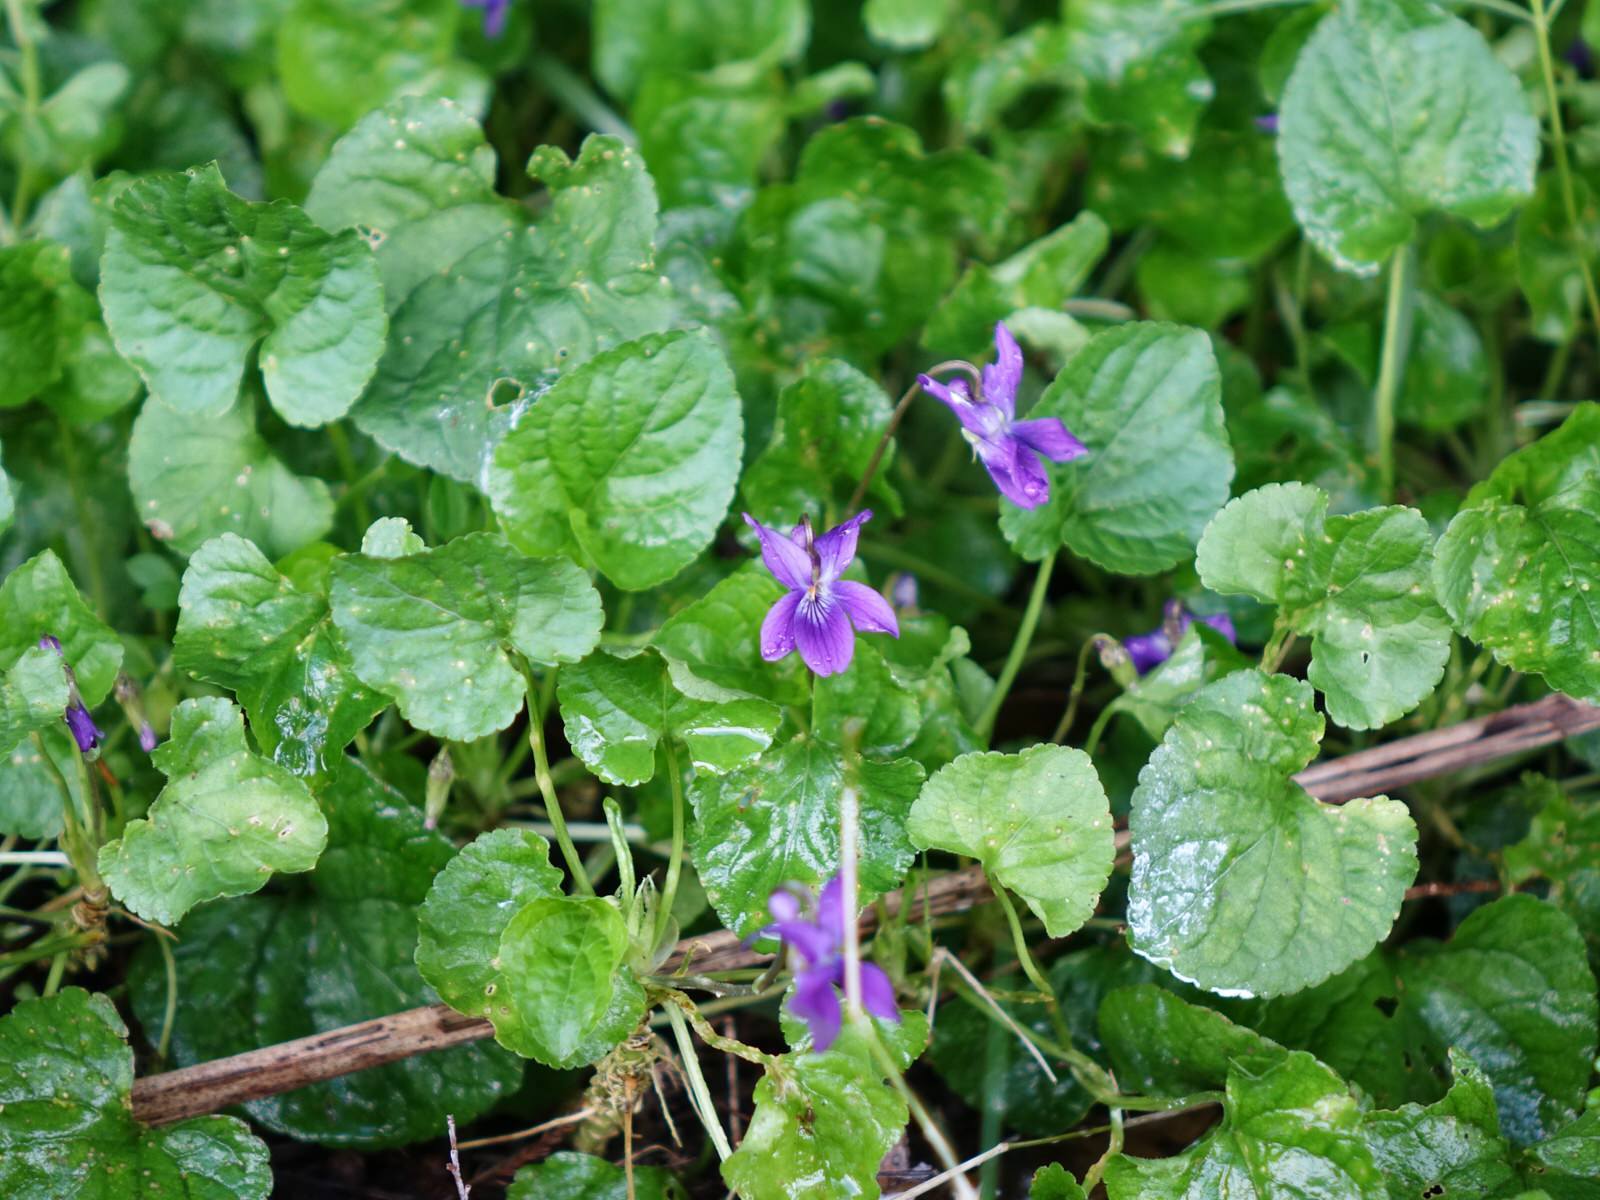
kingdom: Plantae
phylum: Tracheophyta
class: Magnoliopsida
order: Malpighiales
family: Violaceae
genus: Viola
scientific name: Viola odorata
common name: Sweet violet
